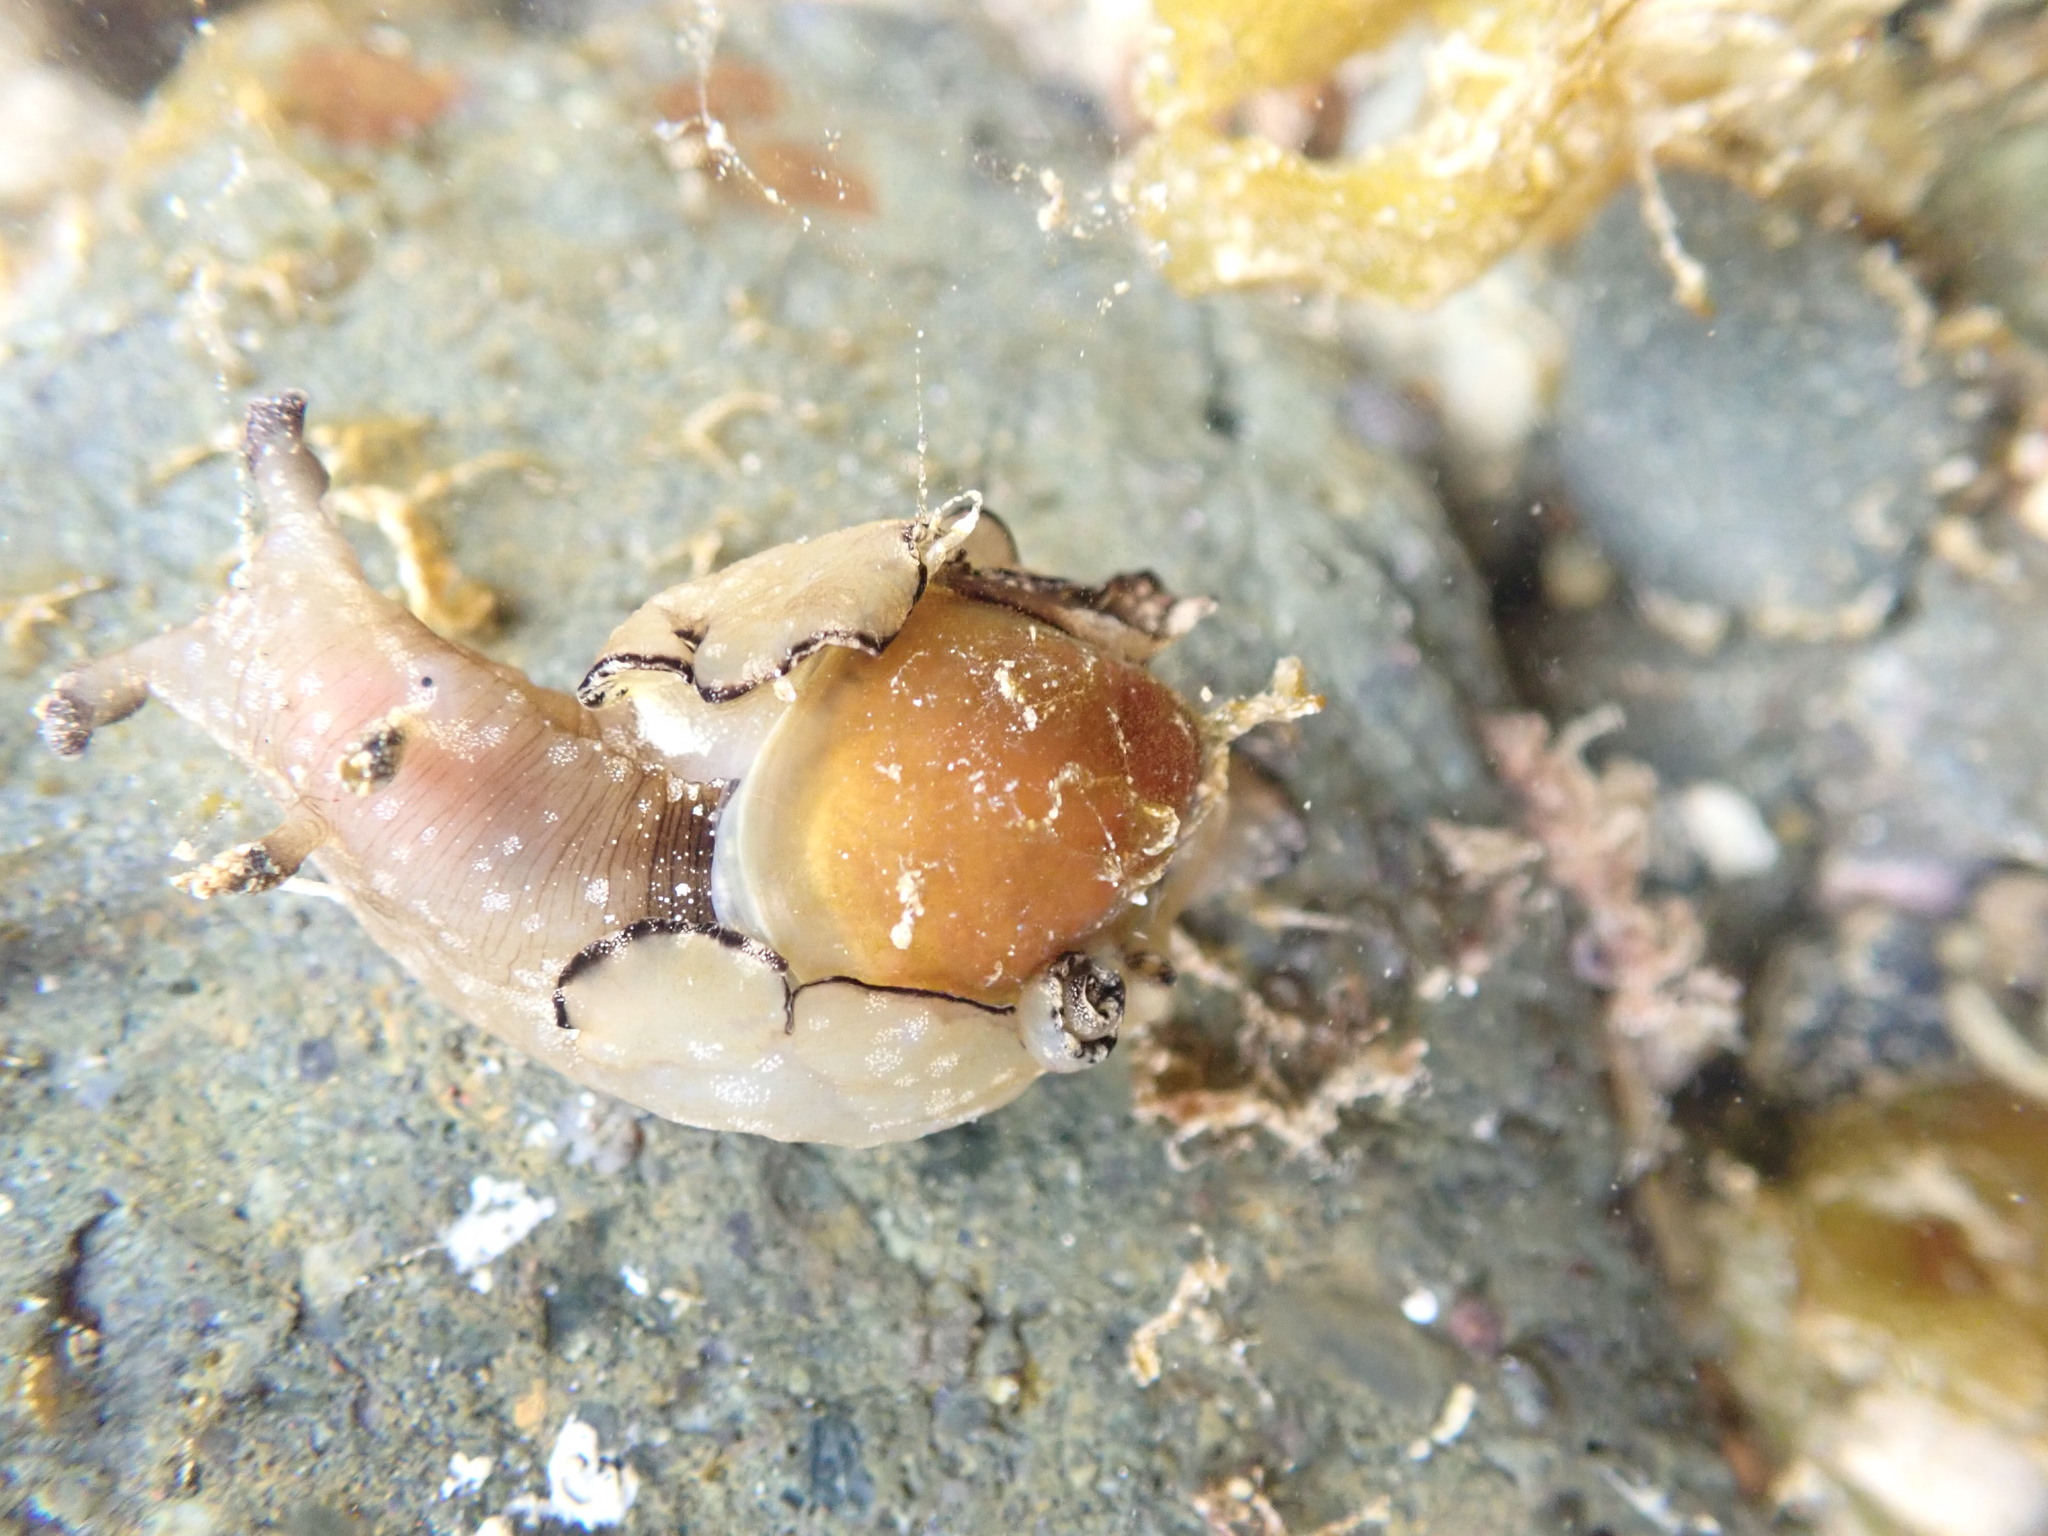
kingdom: Animalia
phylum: Mollusca
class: Gastropoda
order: Aplysiida
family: Aplysiidae
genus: Aplysia
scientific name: Aplysia concava
